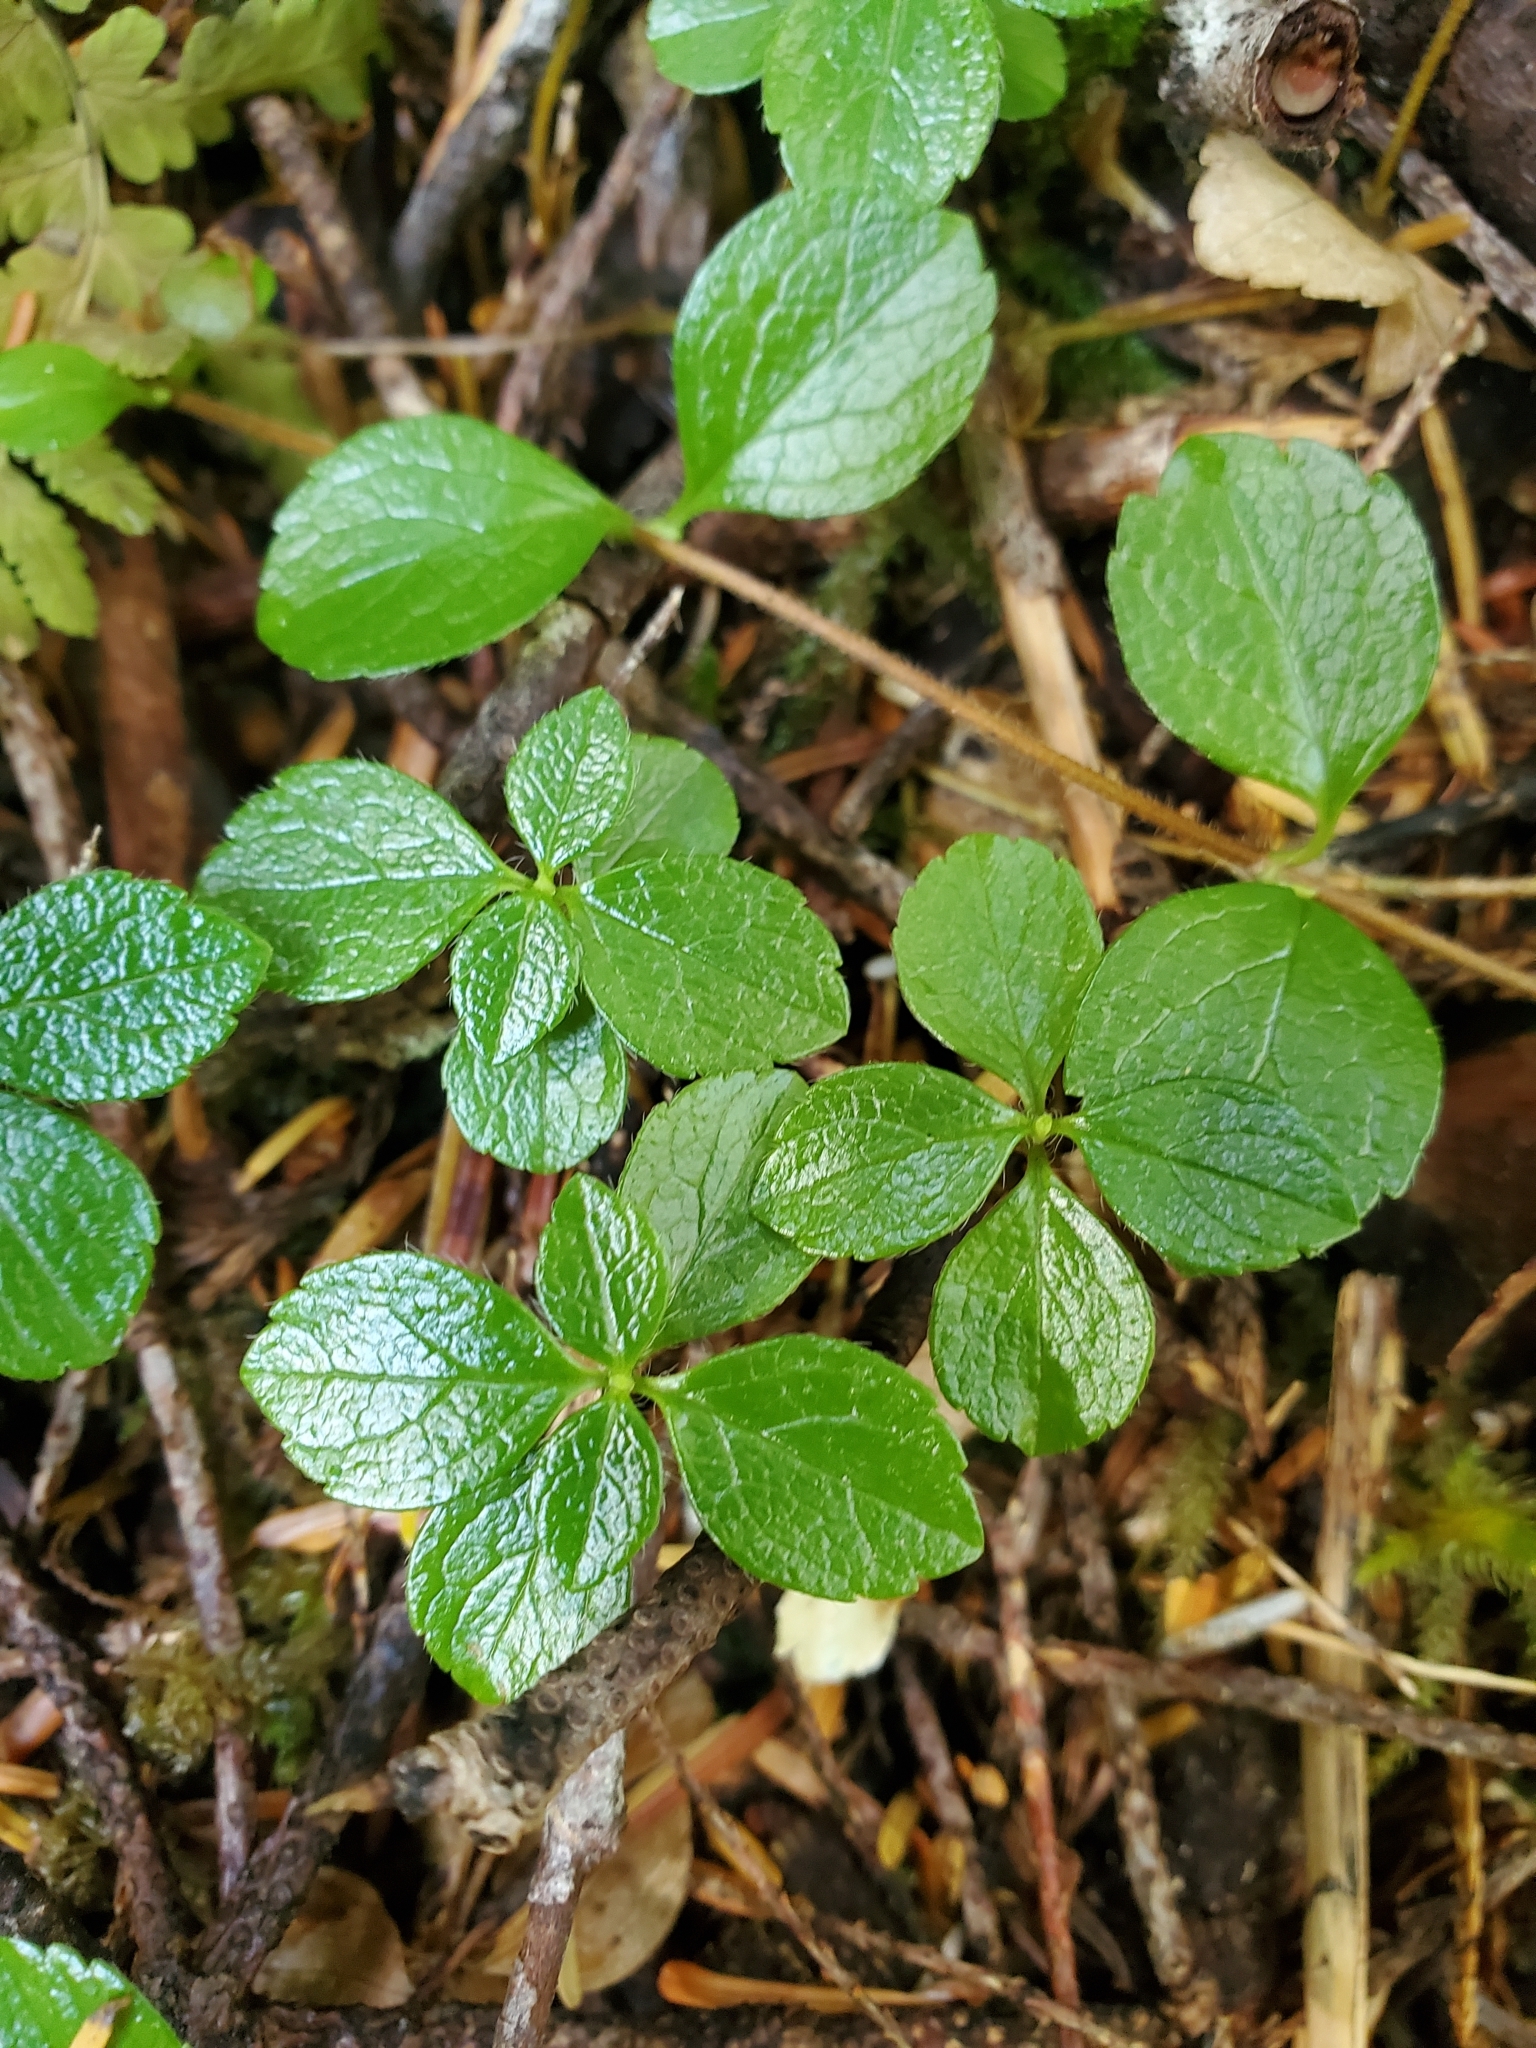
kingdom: Plantae
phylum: Tracheophyta
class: Magnoliopsida
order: Dipsacales
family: Caprifoliaceae
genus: Linnaea
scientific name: Linnaea borealis
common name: Twinflower
